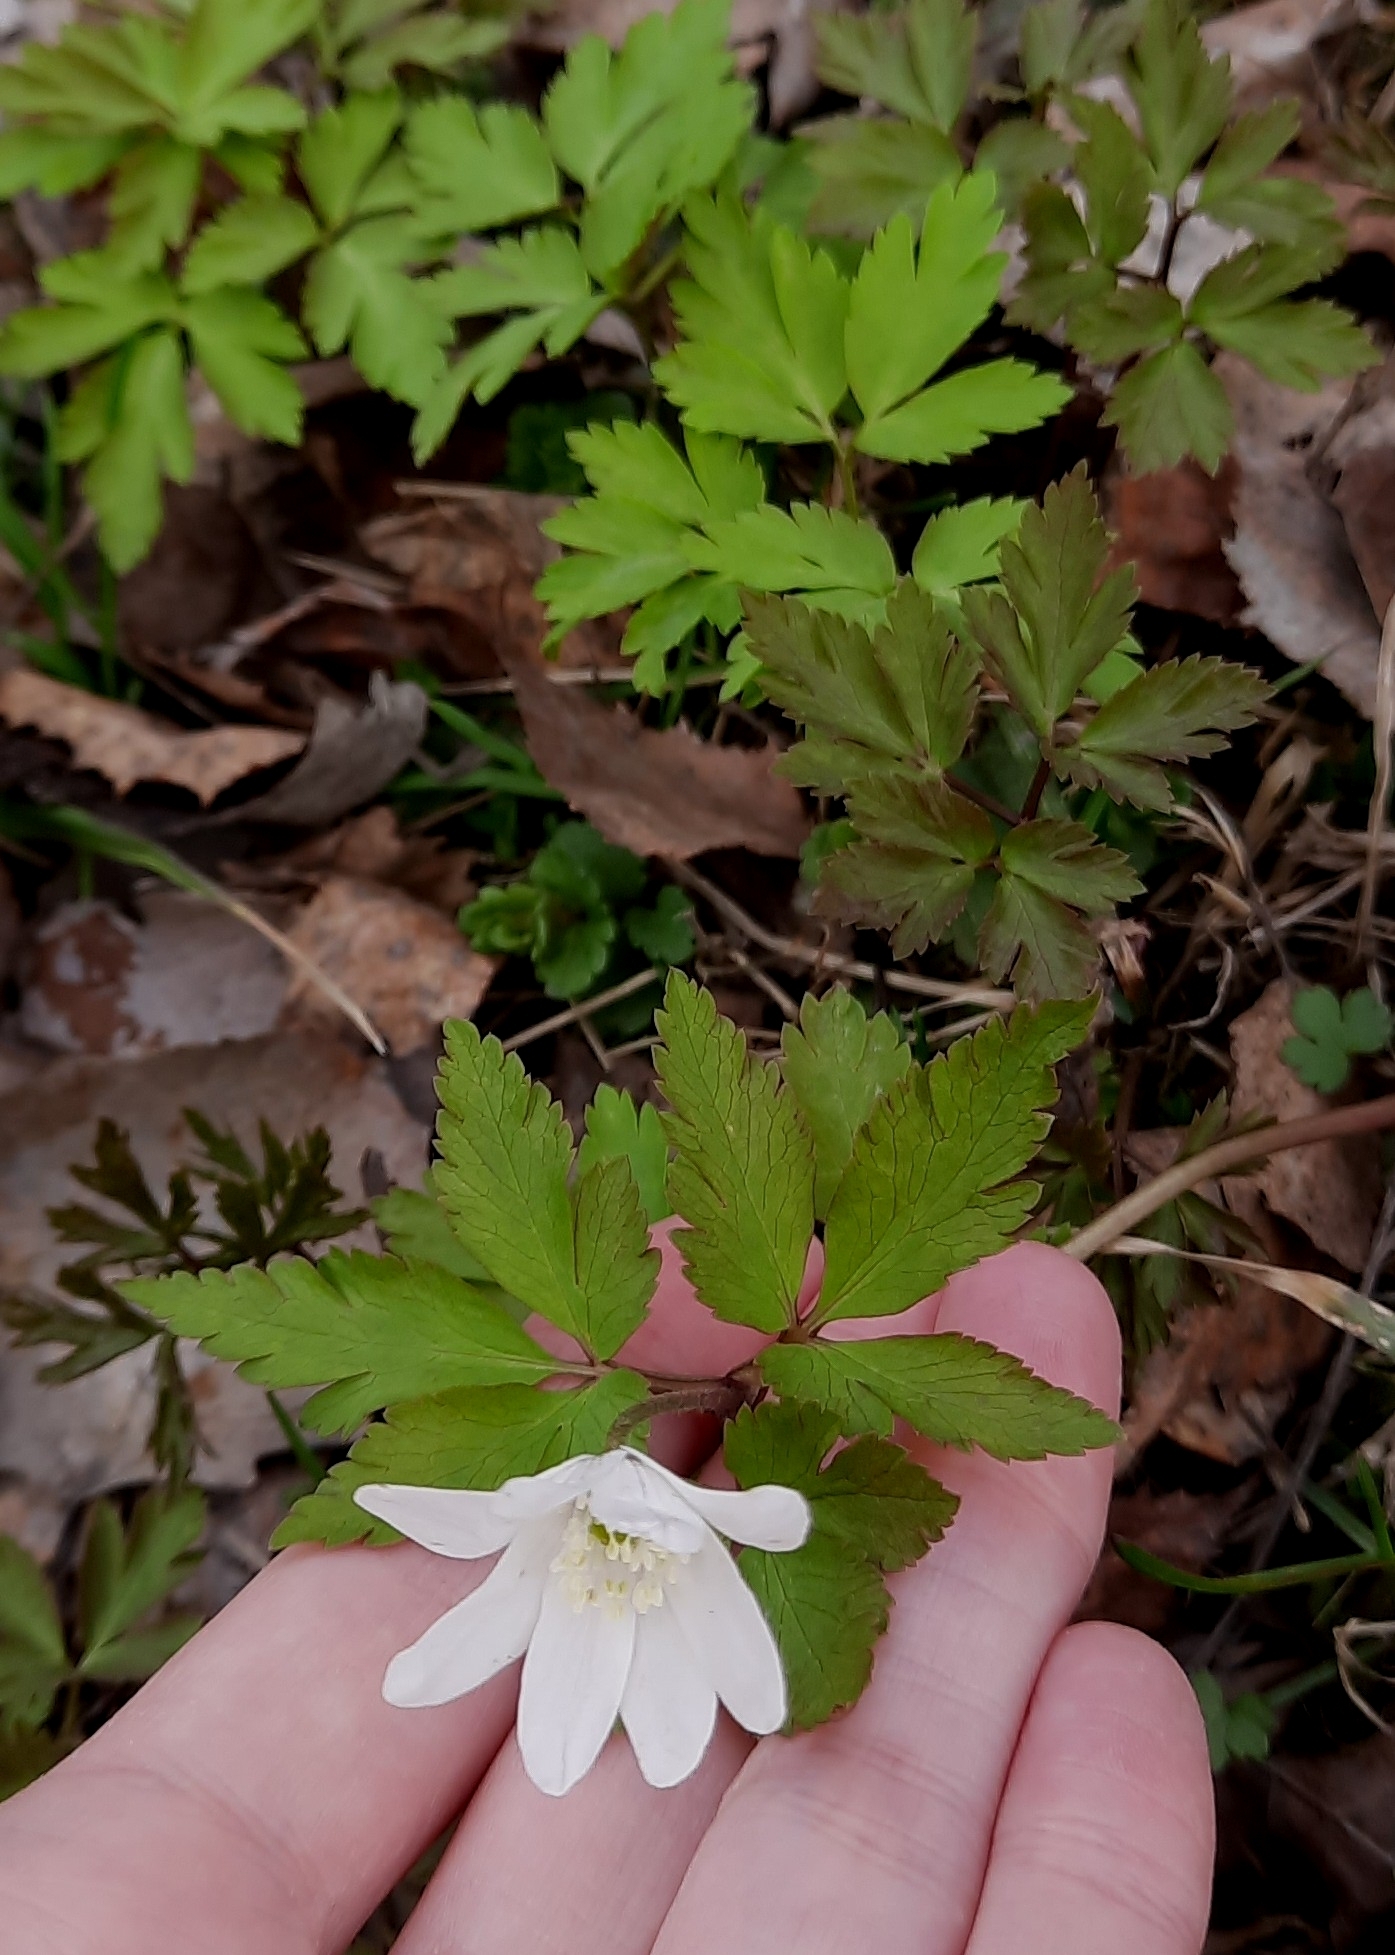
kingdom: Plantae
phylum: Tracheophyta
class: Magnoliopsida
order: Ranunculales
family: Ranunculaceae
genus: Anemone
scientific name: Anemone altaica
